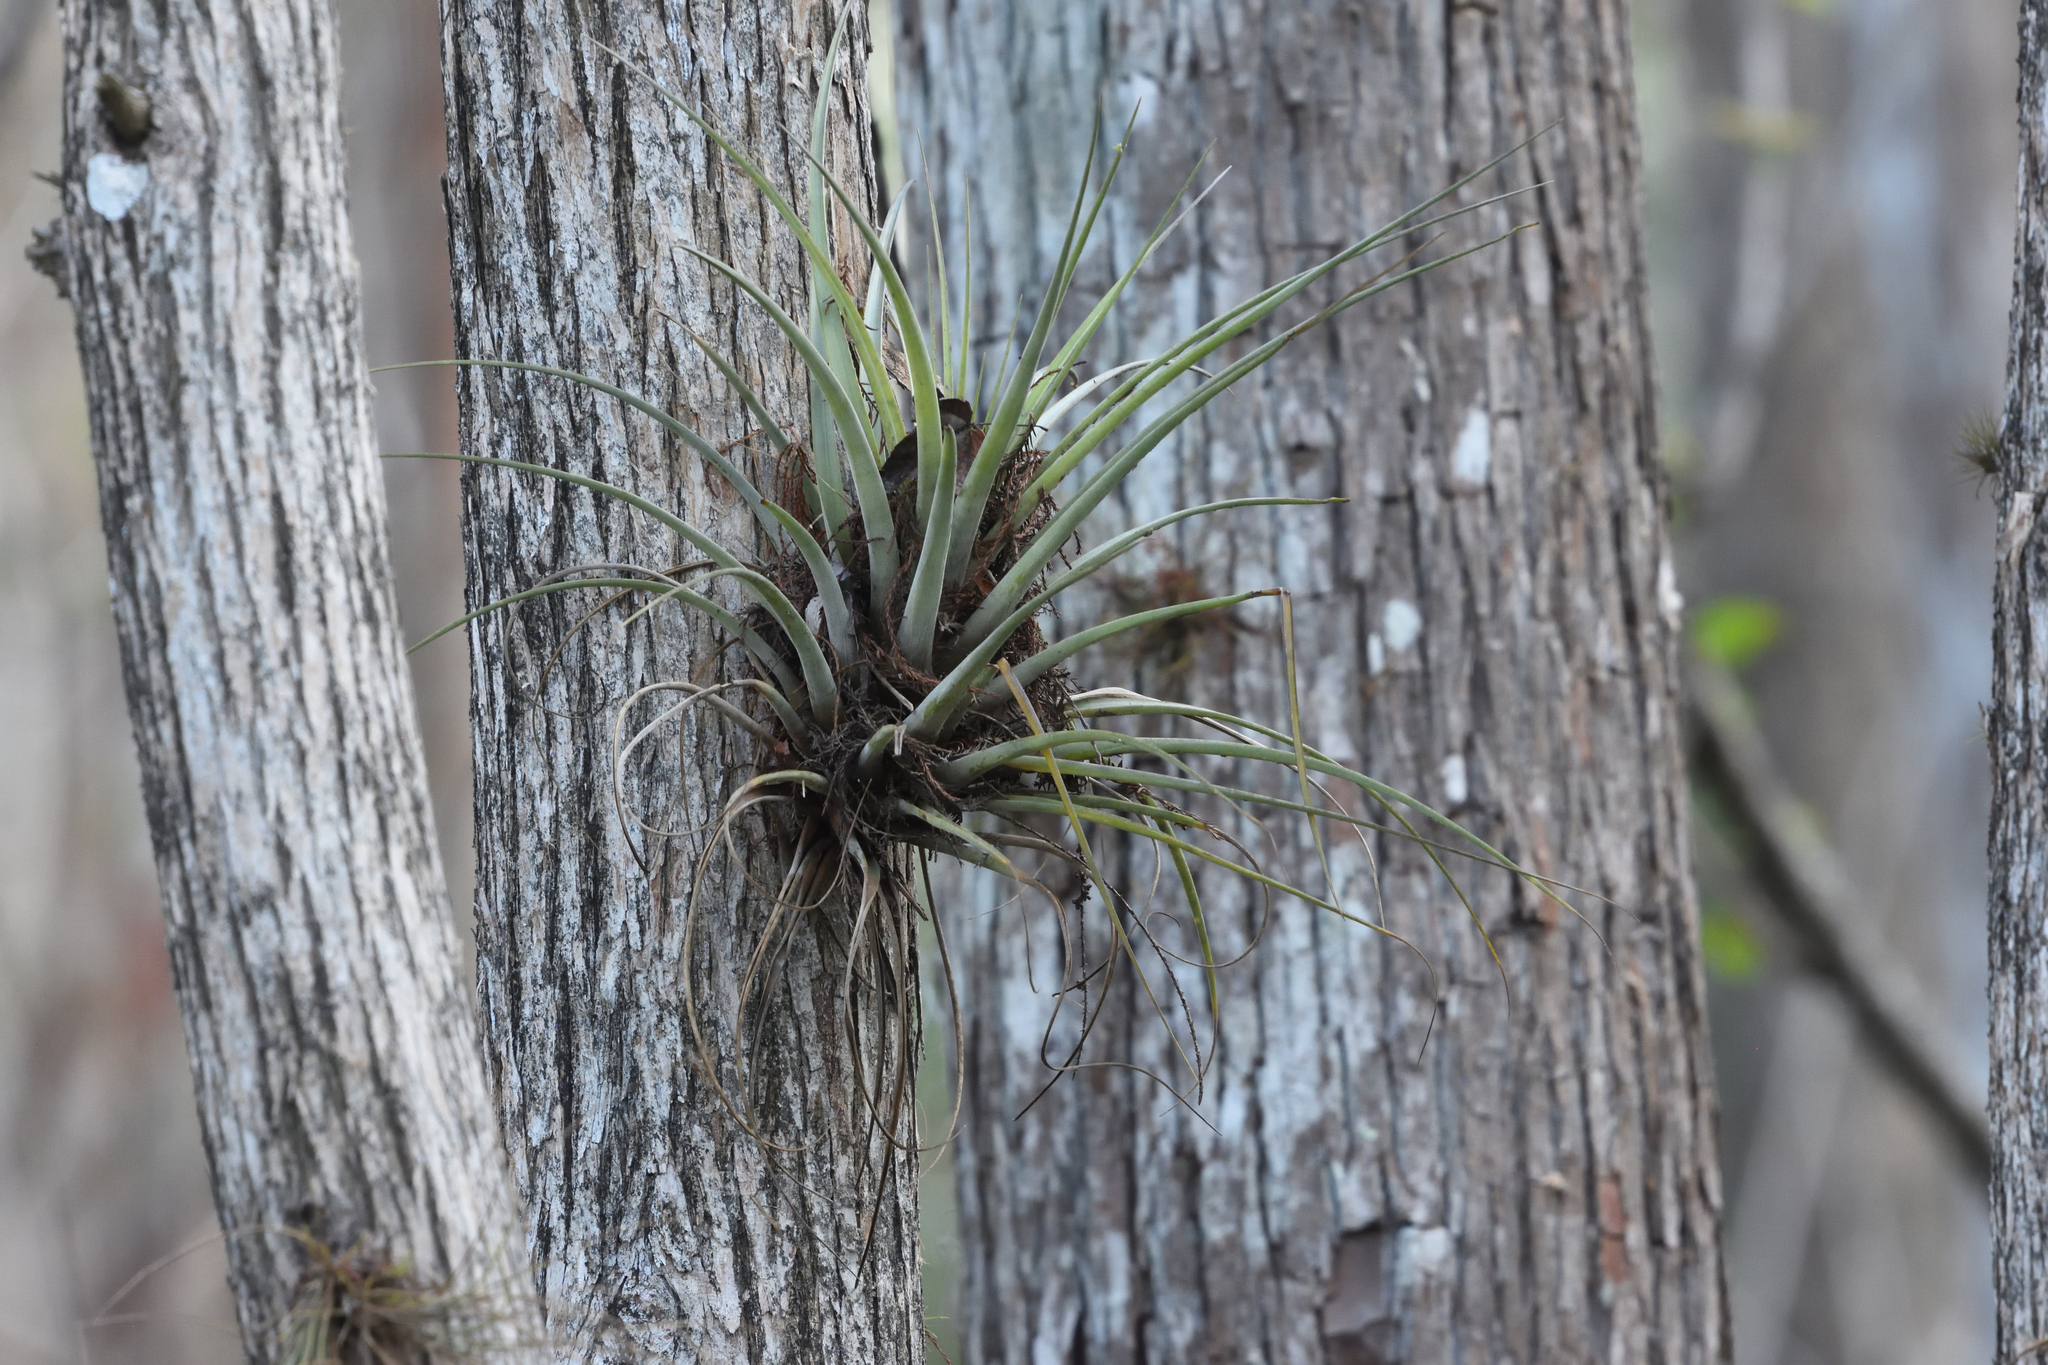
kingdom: Plantae
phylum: Tracheophyta
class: Liliopsida
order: Poales
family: Bromeliaceae
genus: Tillandsia
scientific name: Tillandsia fasciculata
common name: Giant airplant
